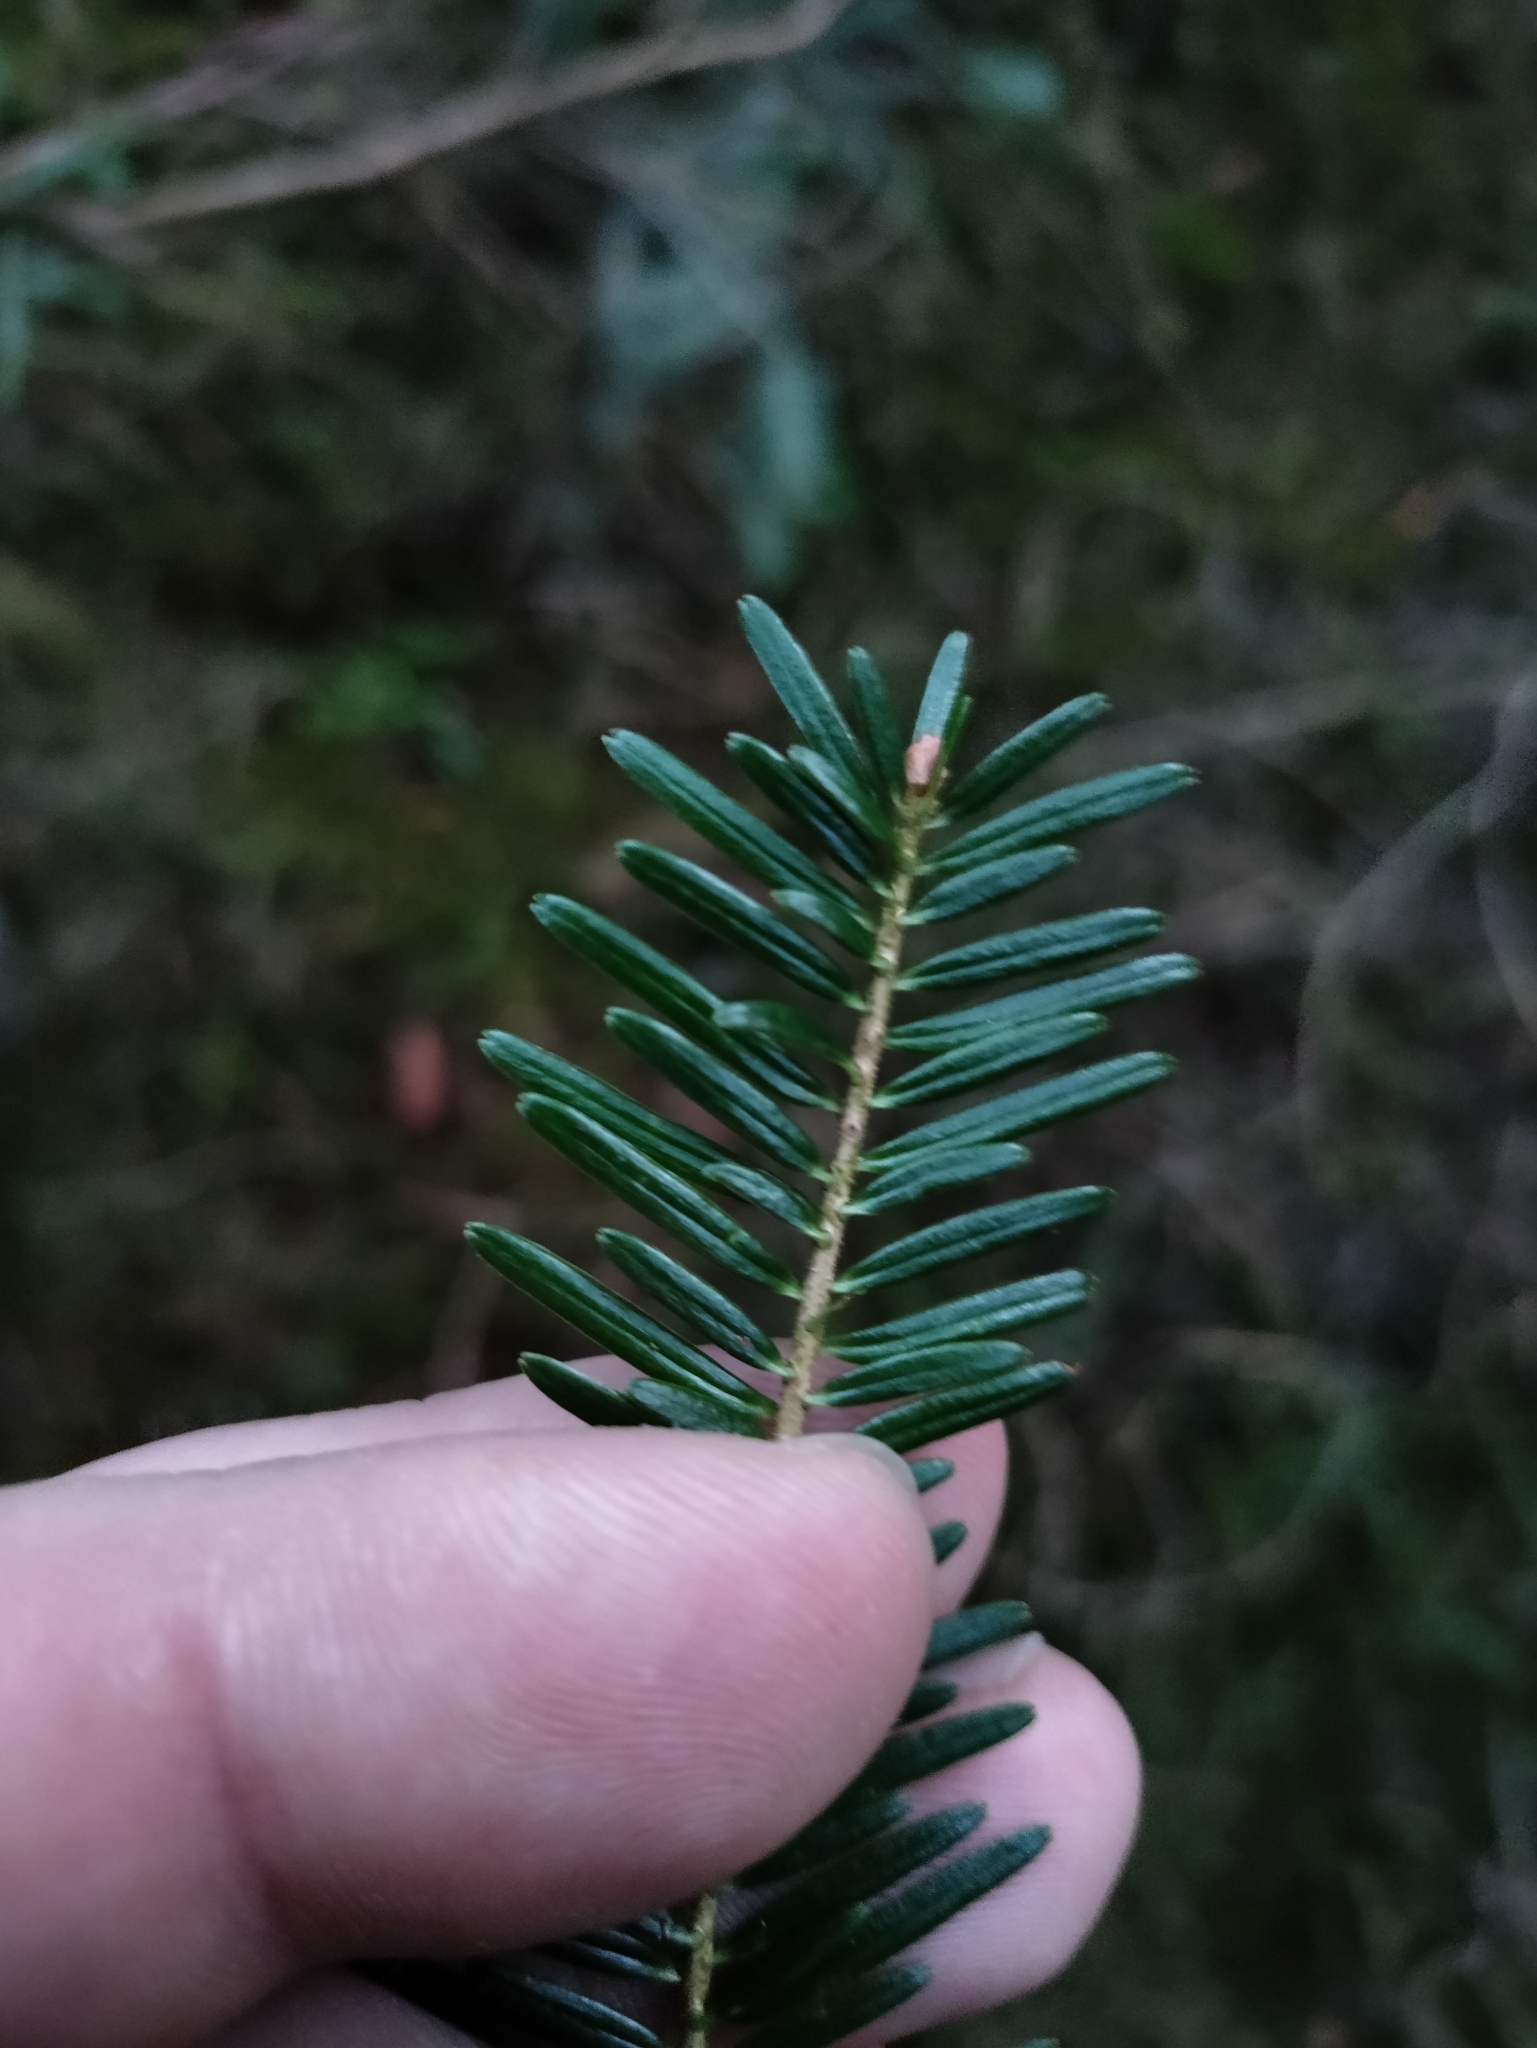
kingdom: Plantae
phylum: Tracheophyta
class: Pinopsida
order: Pinales
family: Pinaceae
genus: Abies
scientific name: Abies alba
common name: Silver fir
